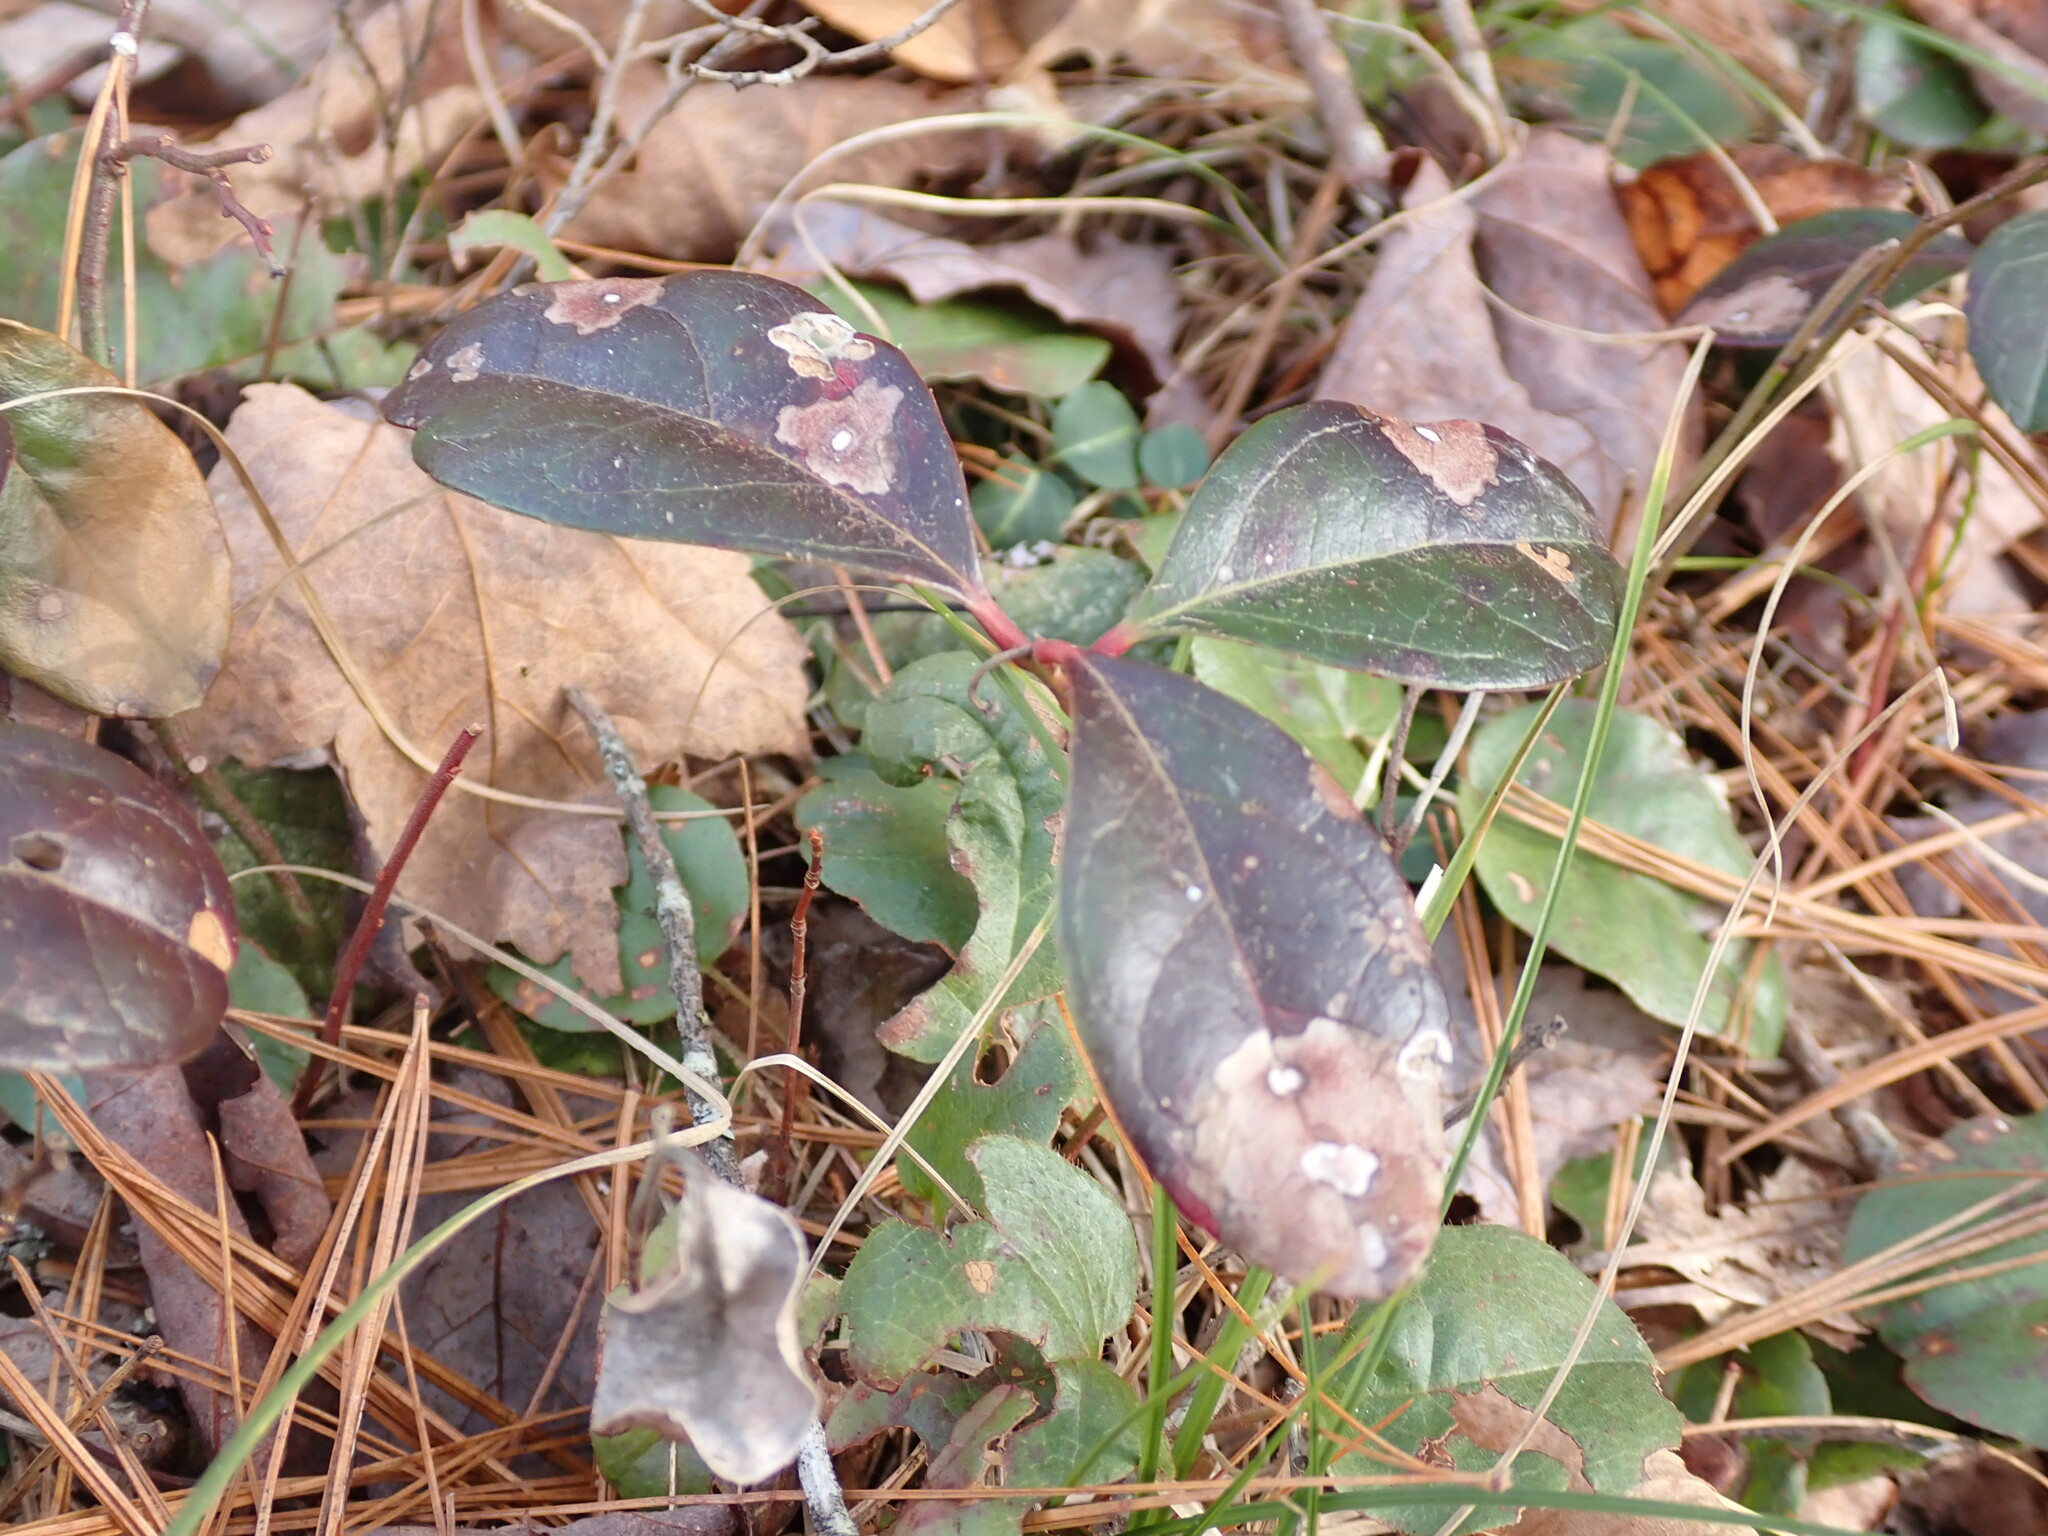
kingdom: Plantae
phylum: Tracheophyta
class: Magnoliopsida
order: Ericales
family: Ericaceae
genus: Gaultheria
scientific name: Gaultheria procumbens
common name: Checkerberry
